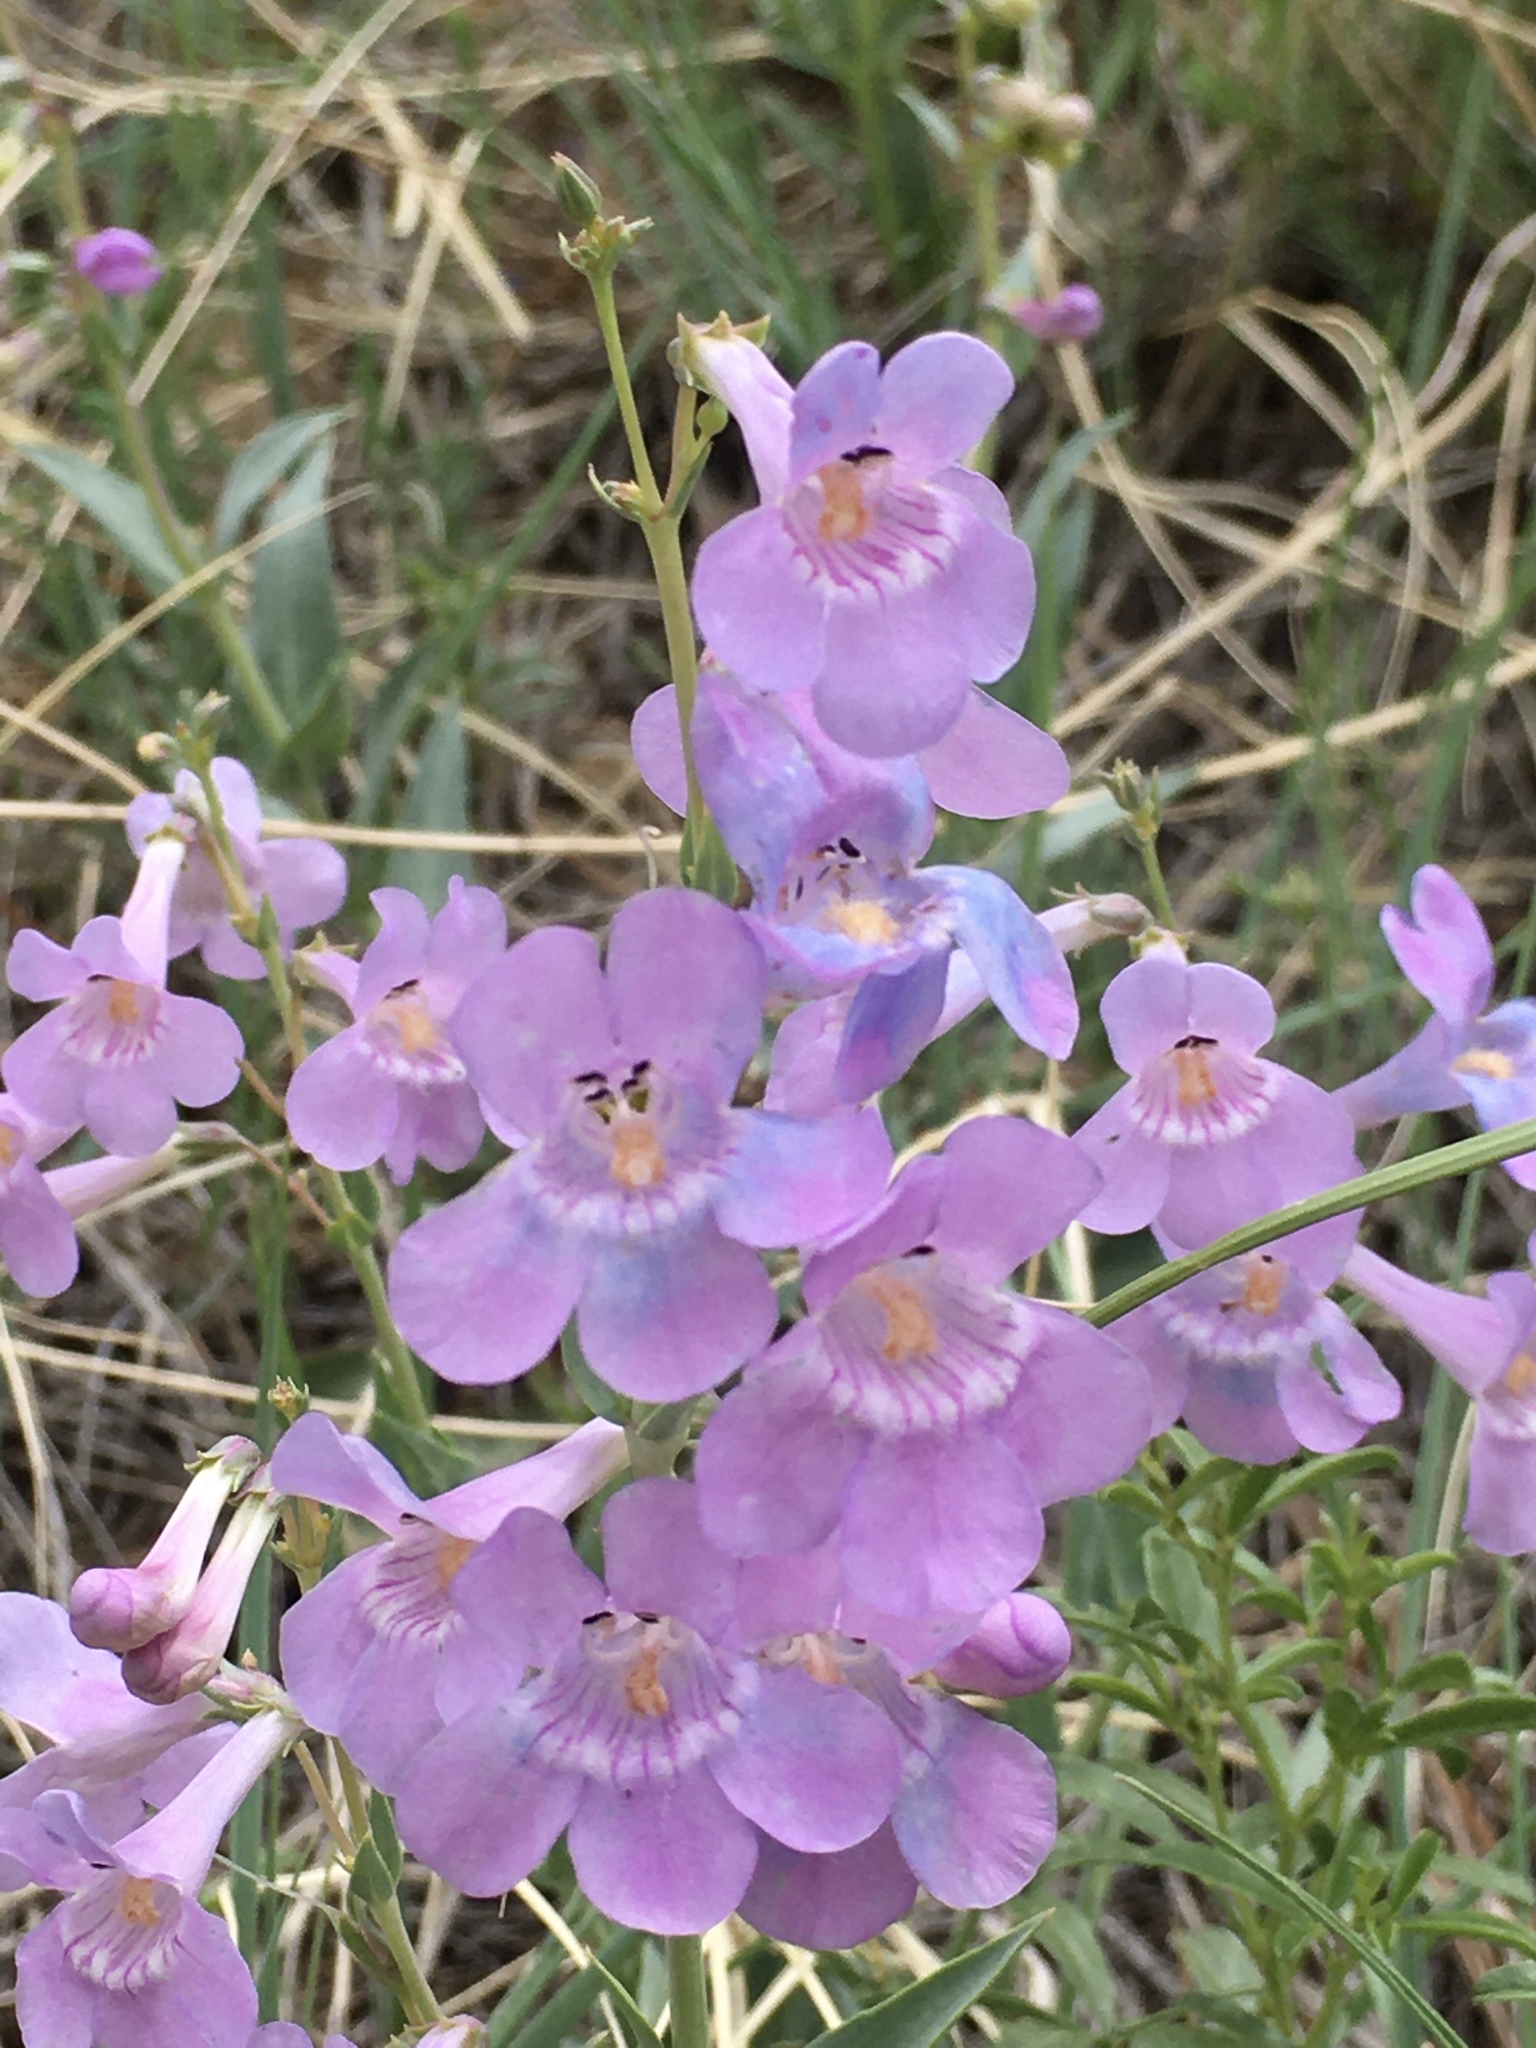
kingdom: Plantae
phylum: Tracheophyta
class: Magnoliopsida
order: Lamiales
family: Plantaginaceae
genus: Penstemon
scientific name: Penstemon secundiflorus
